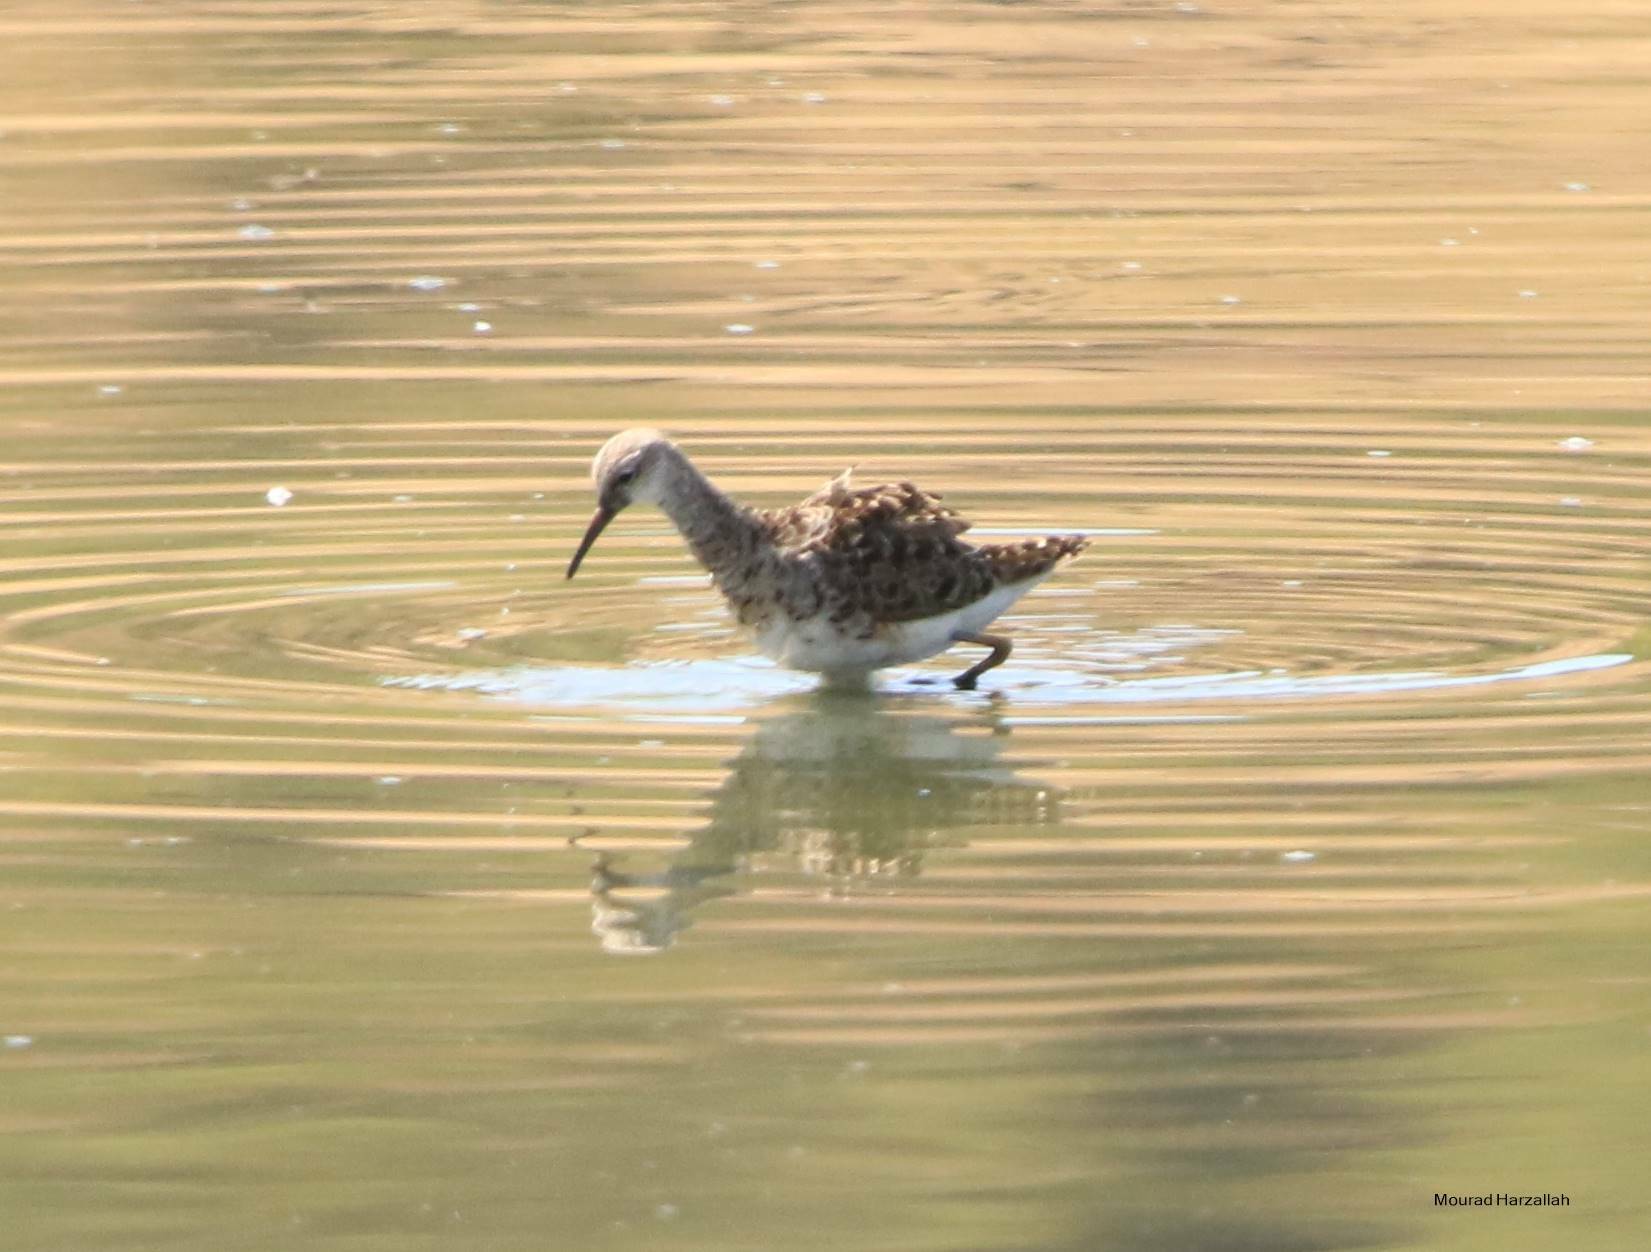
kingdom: Animalia
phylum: Chordata
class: Aves
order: Charadriiformes
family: Scolopacidae
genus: Calidris
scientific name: Calidris pugnax
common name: Ruff
